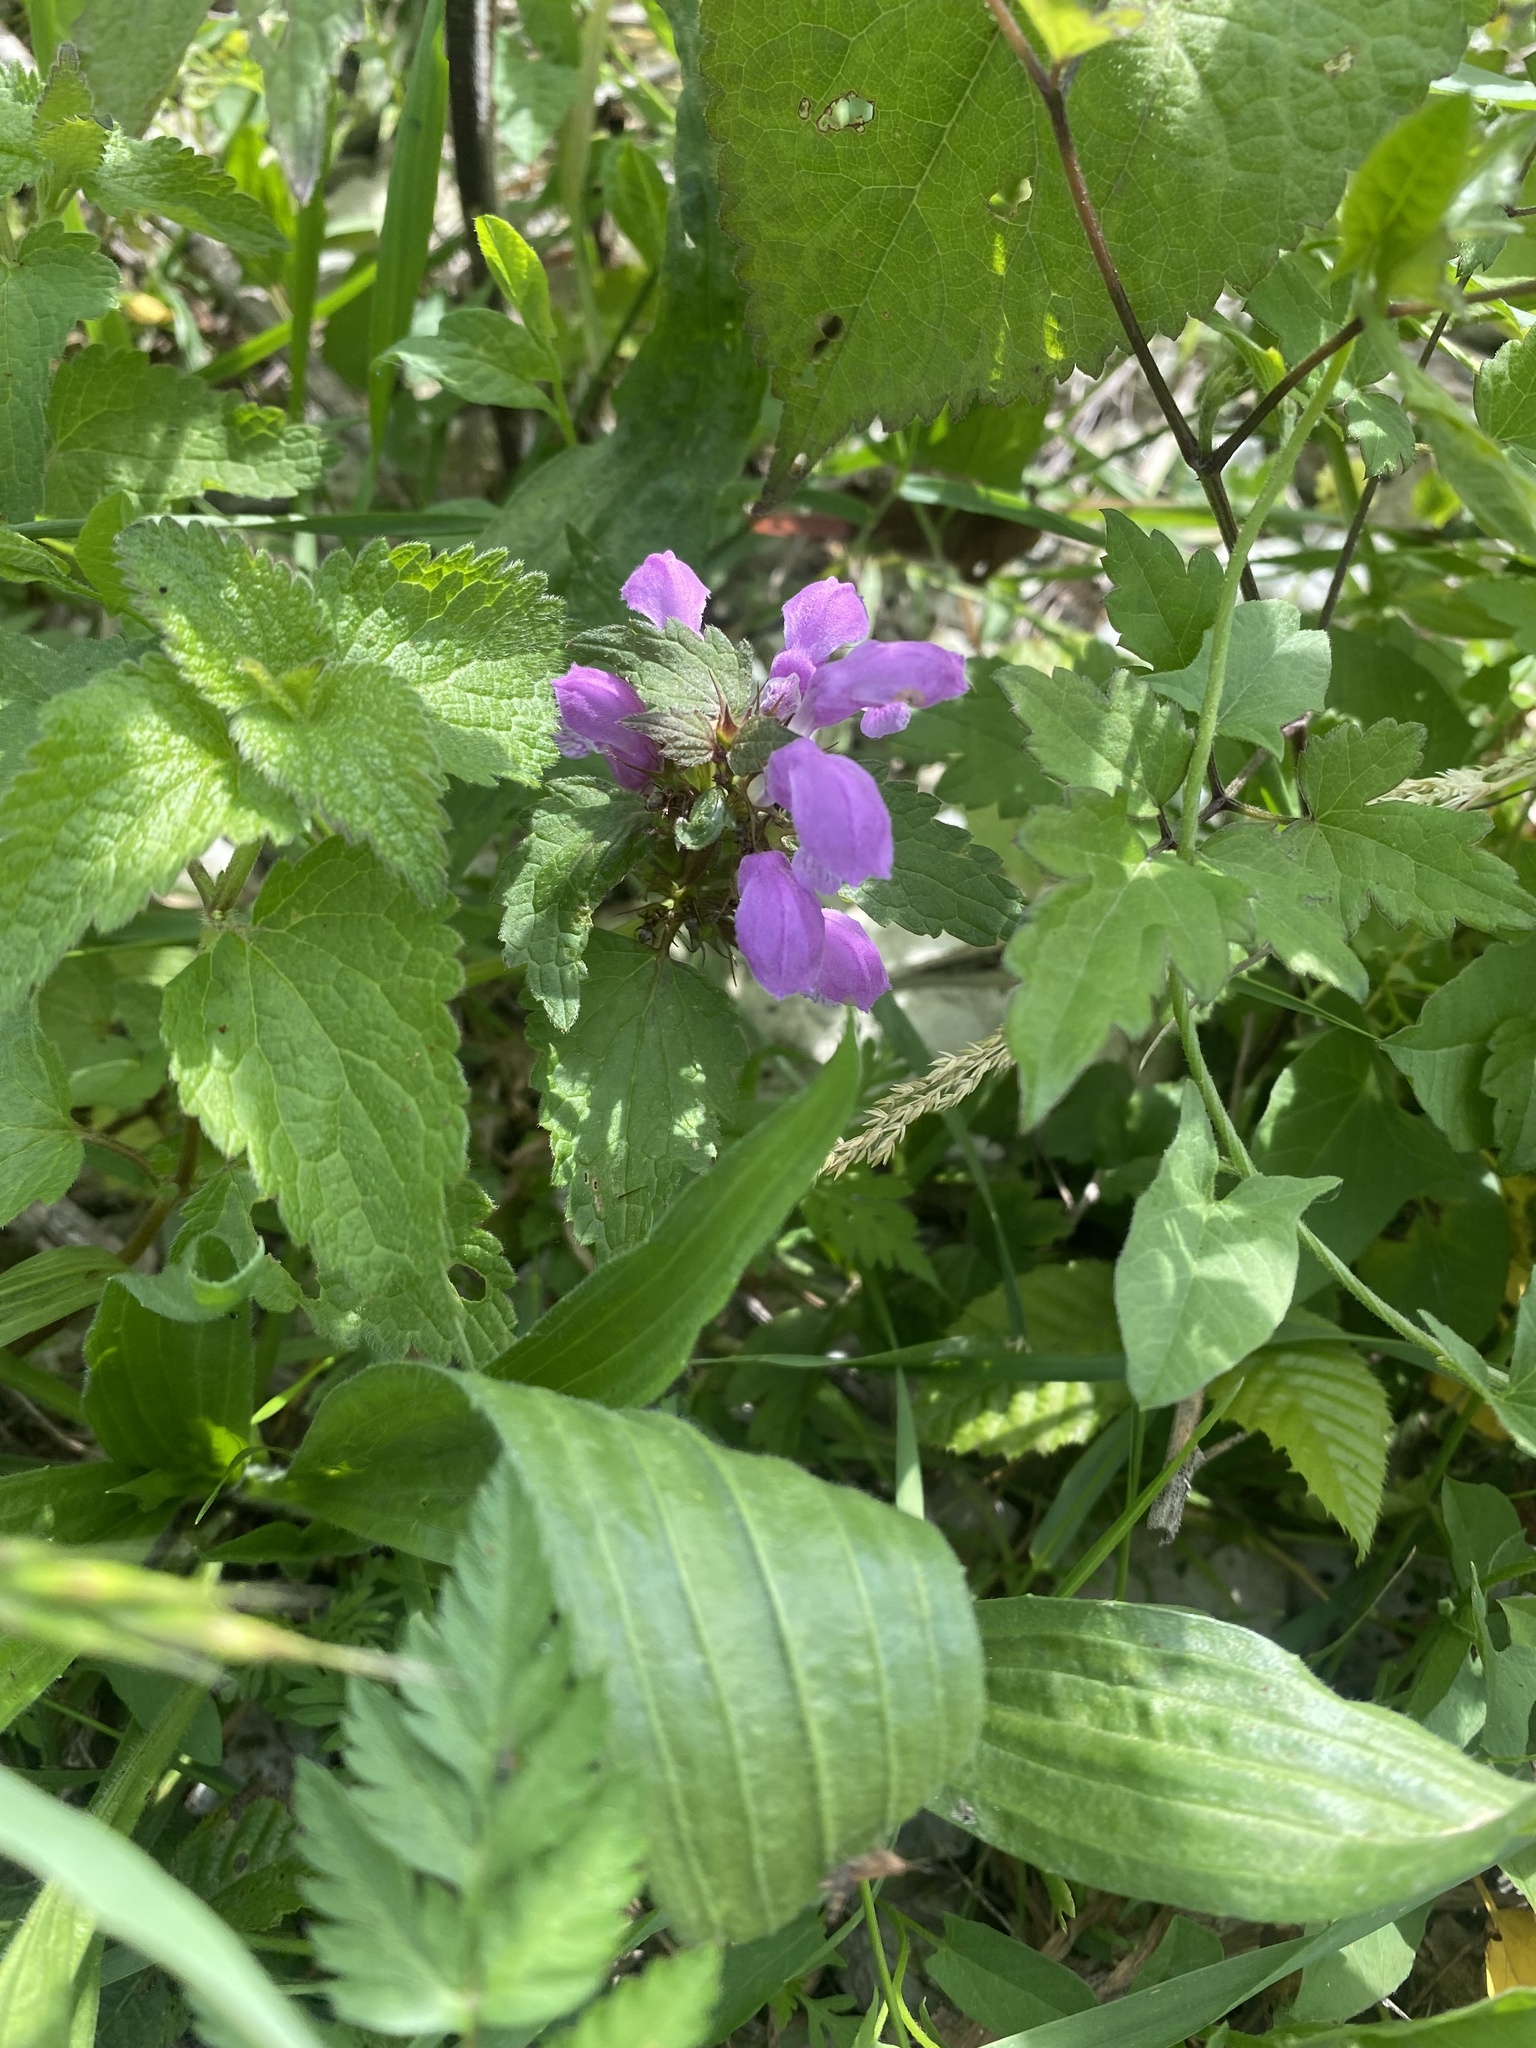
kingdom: Plantae
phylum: Tracheophyta
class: Magnoliopsida
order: Lamiales
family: Lamiaceae
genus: Lamium
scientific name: Lamium maculatum
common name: Spotted dead-nettle
